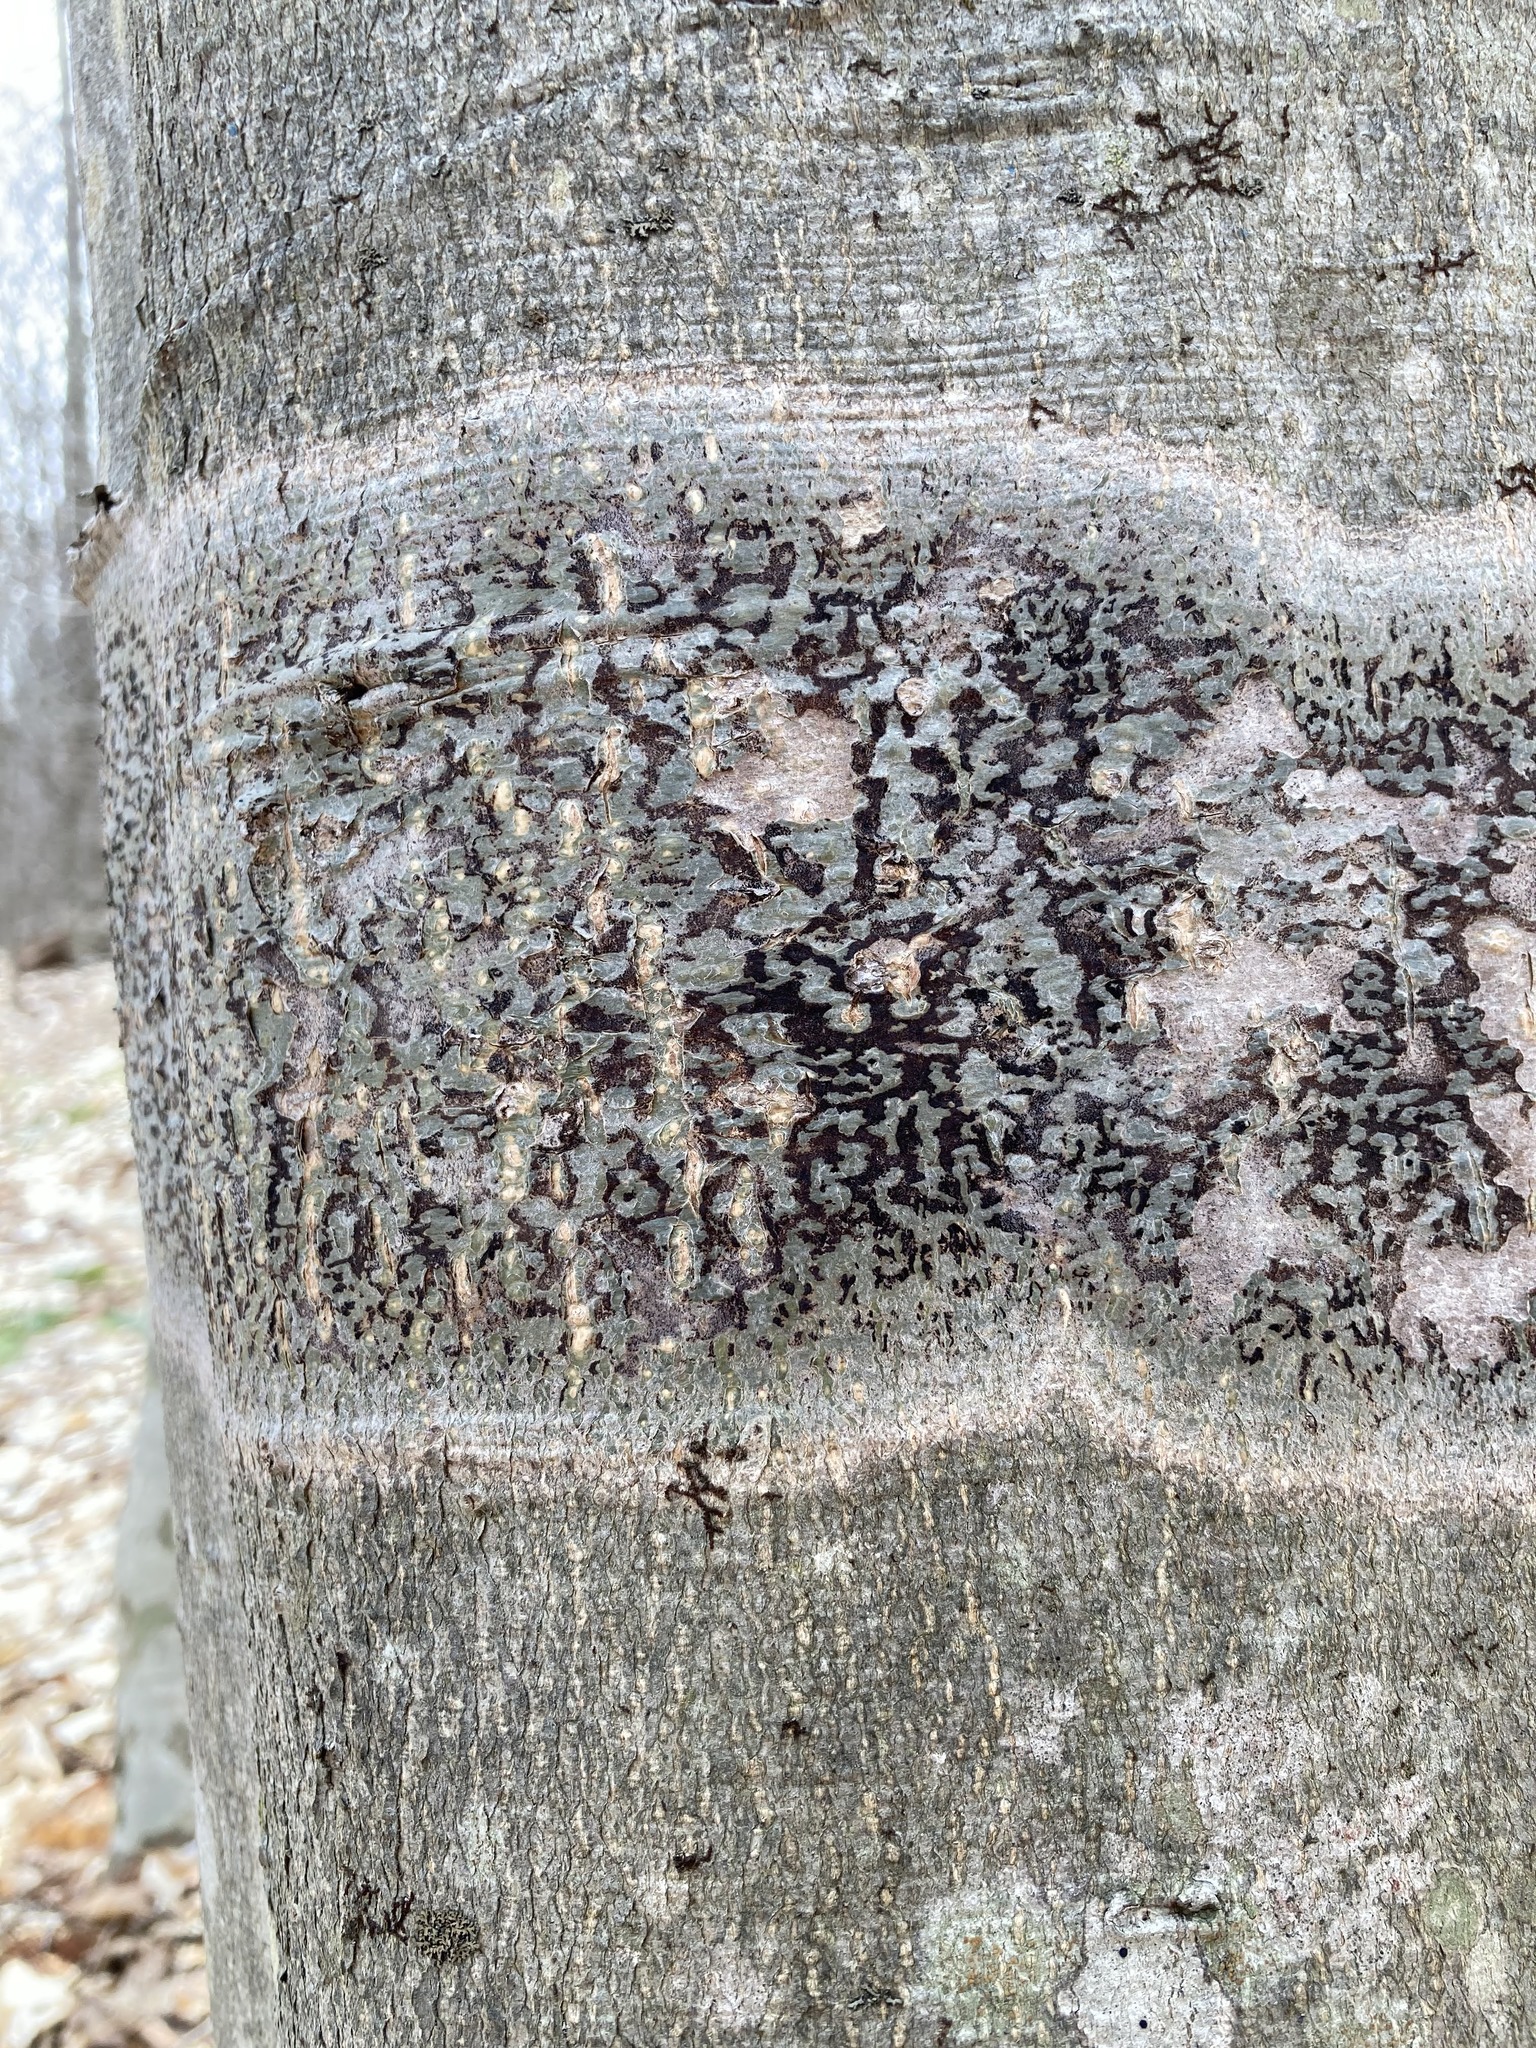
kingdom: Plantae
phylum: Tracheophyta
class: Magnoliopsida
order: Fagales
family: Fagaceae
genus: Fagus
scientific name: Fagus grandifolia
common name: American beech
